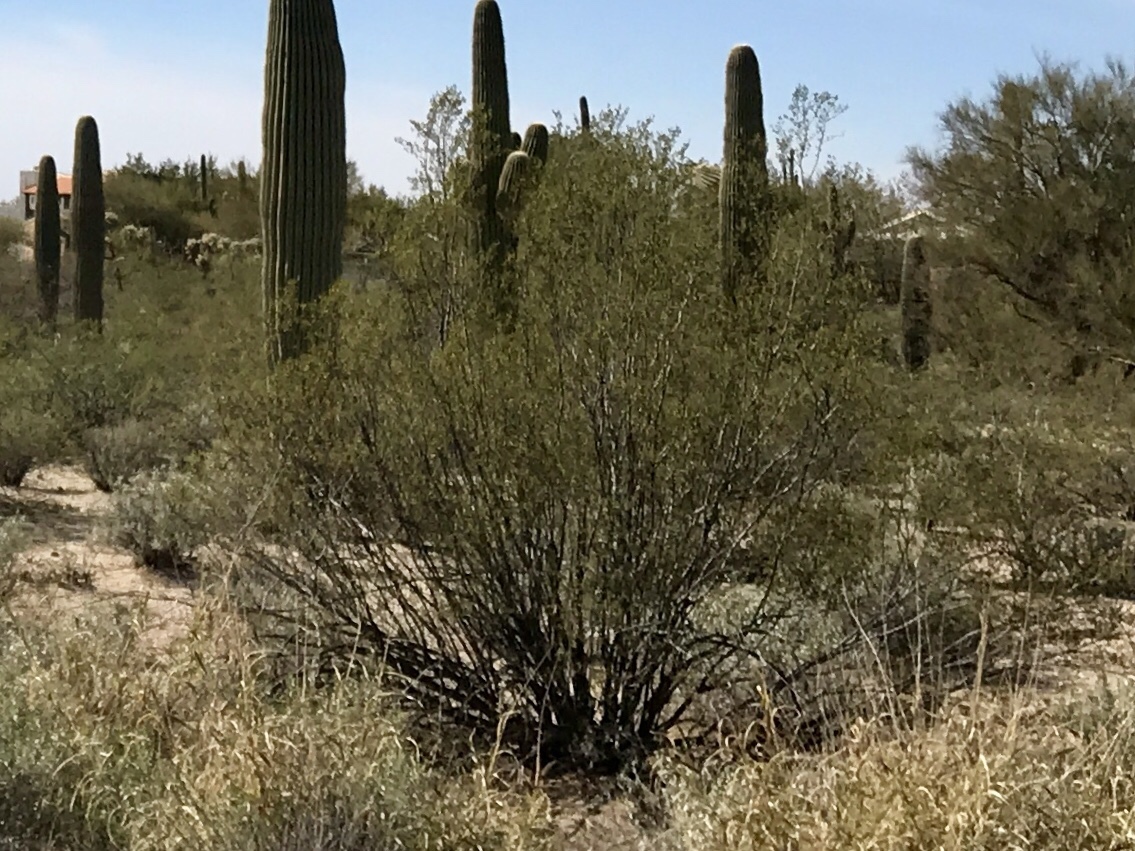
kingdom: Plantae
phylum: Tracheophyta
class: Magnoliopsida
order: Zygophyllales
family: Zygophyllaceae
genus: Larrea
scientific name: Larrea tridentata
